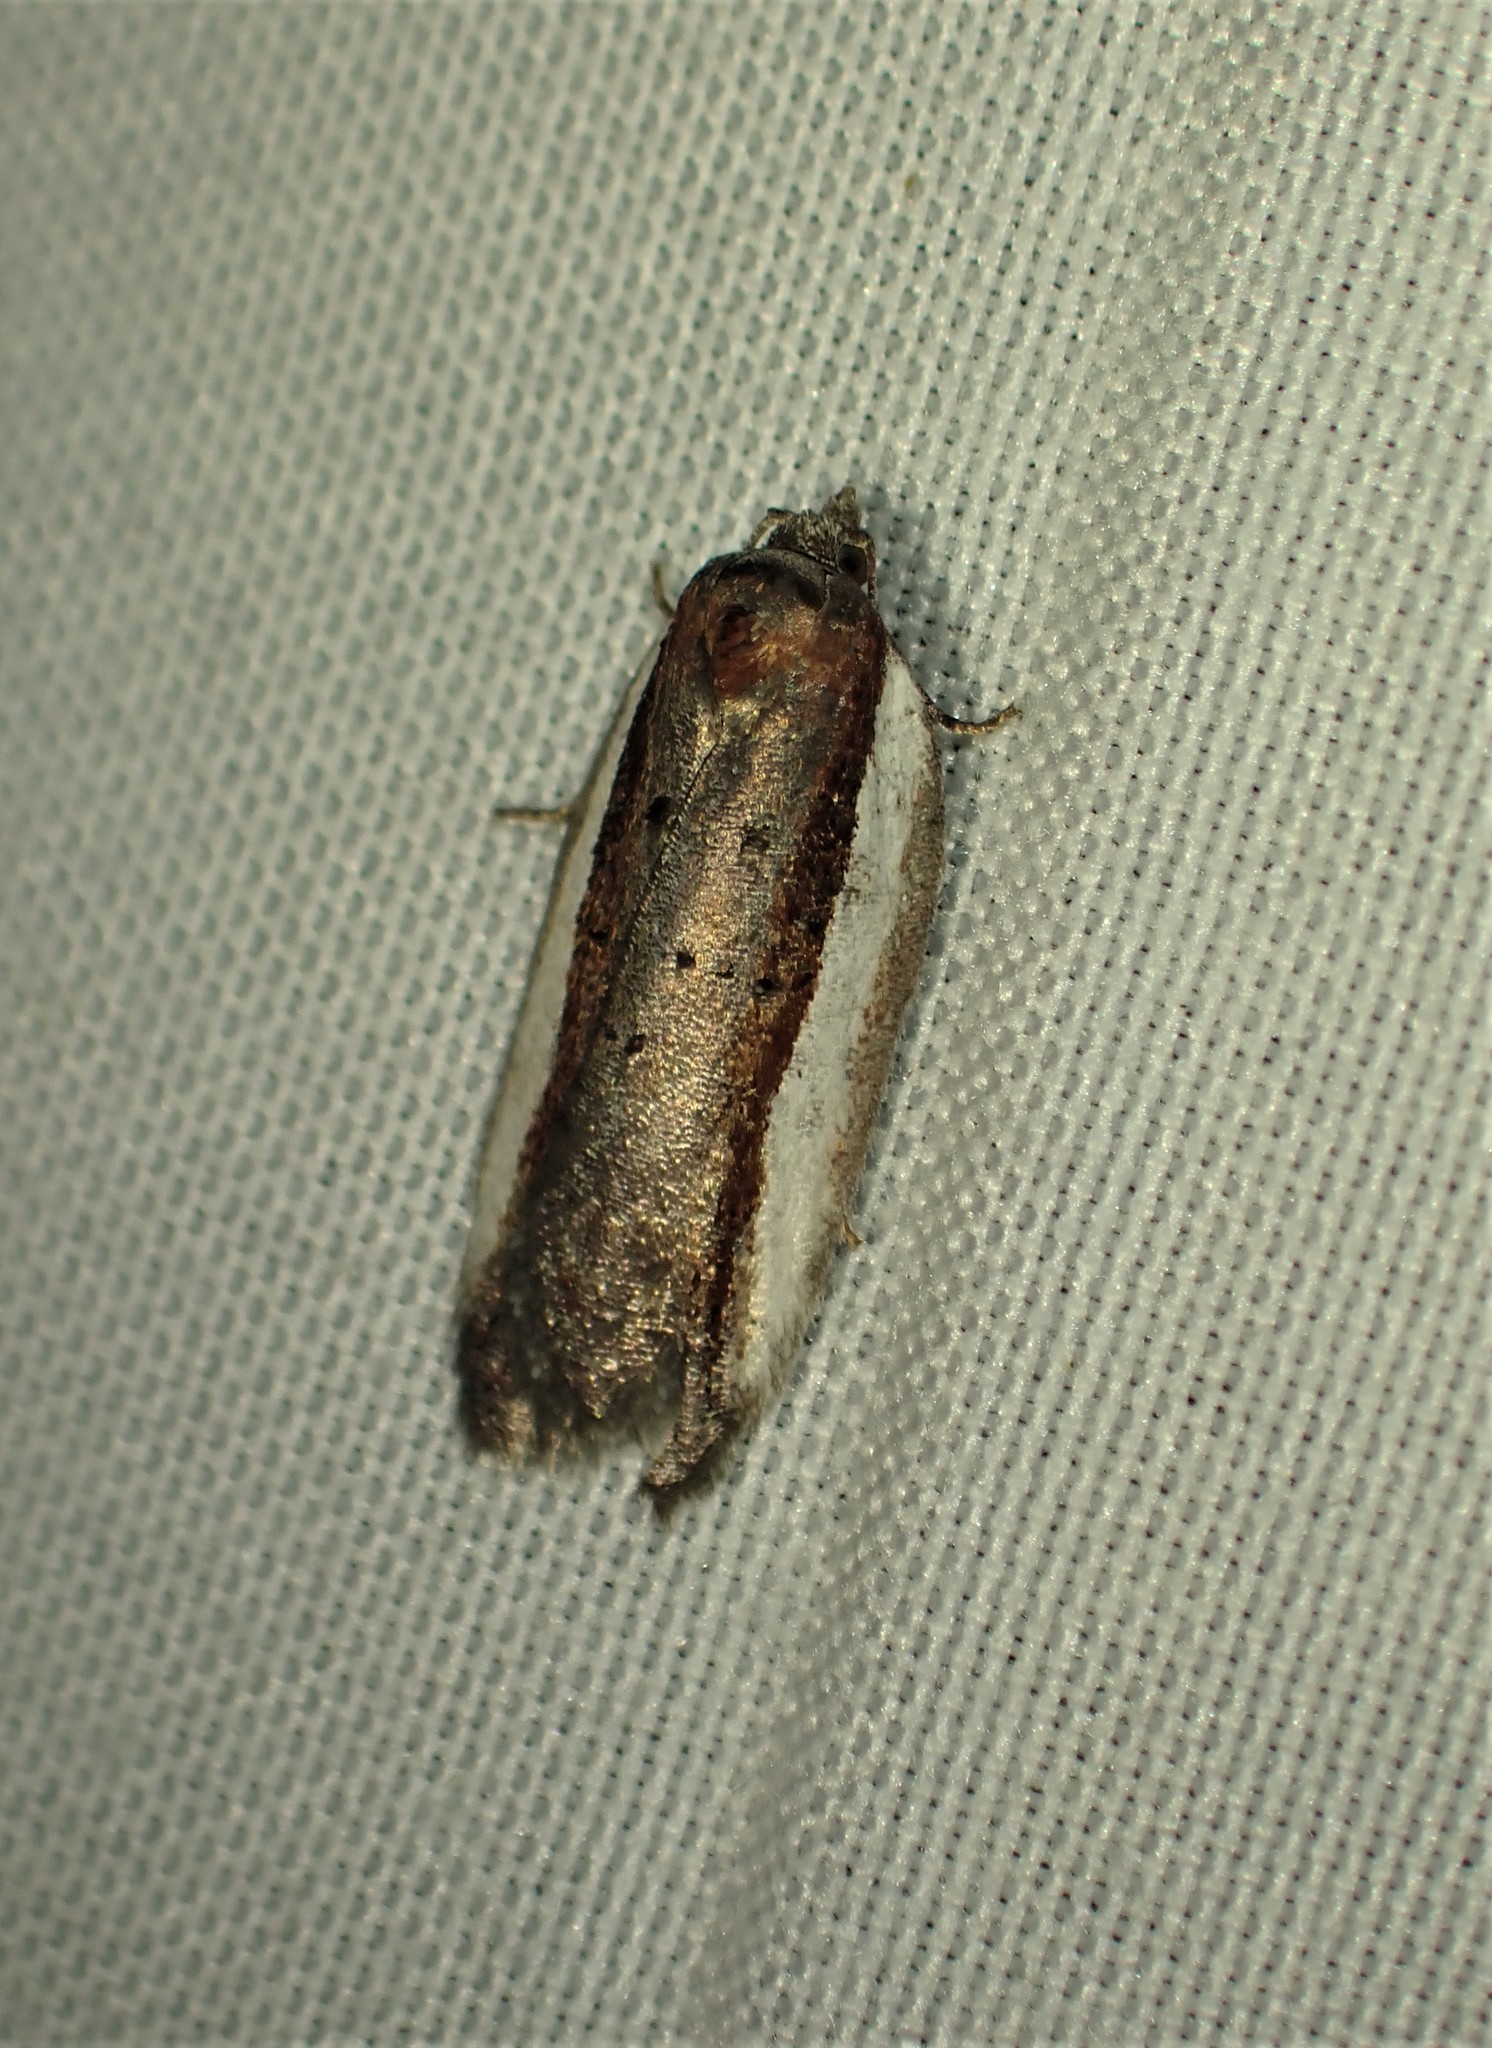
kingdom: Animalia
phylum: Arthropoda
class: Insecta
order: Lepidoptera
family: Tortricidae
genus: Acleris
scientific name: Acleris celiana
